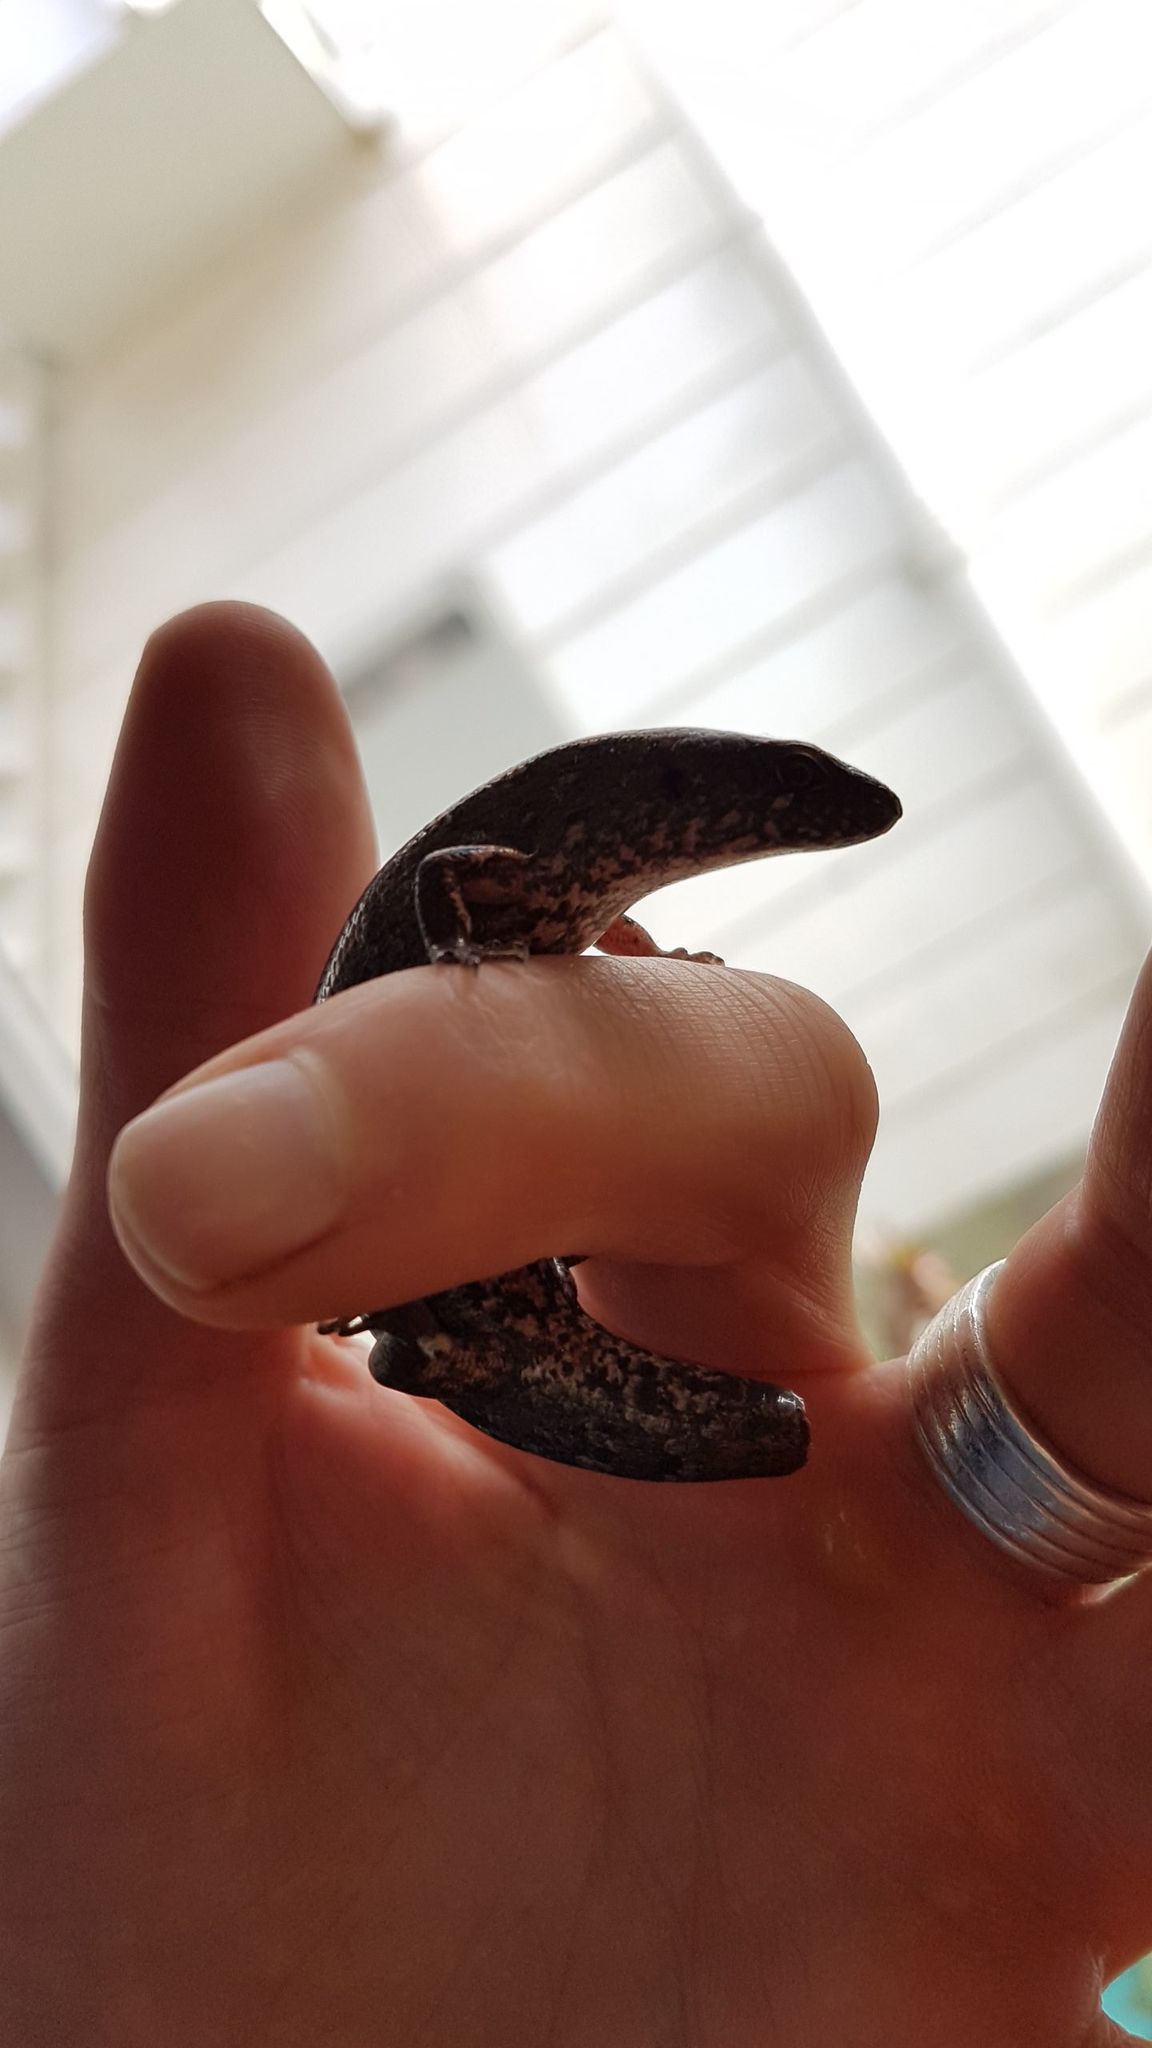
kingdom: Animalia
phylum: Chordata
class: Squamata
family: Scincidae
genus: Oligosoma
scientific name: Oligosoma ornatum
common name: Gray's ornate skink
